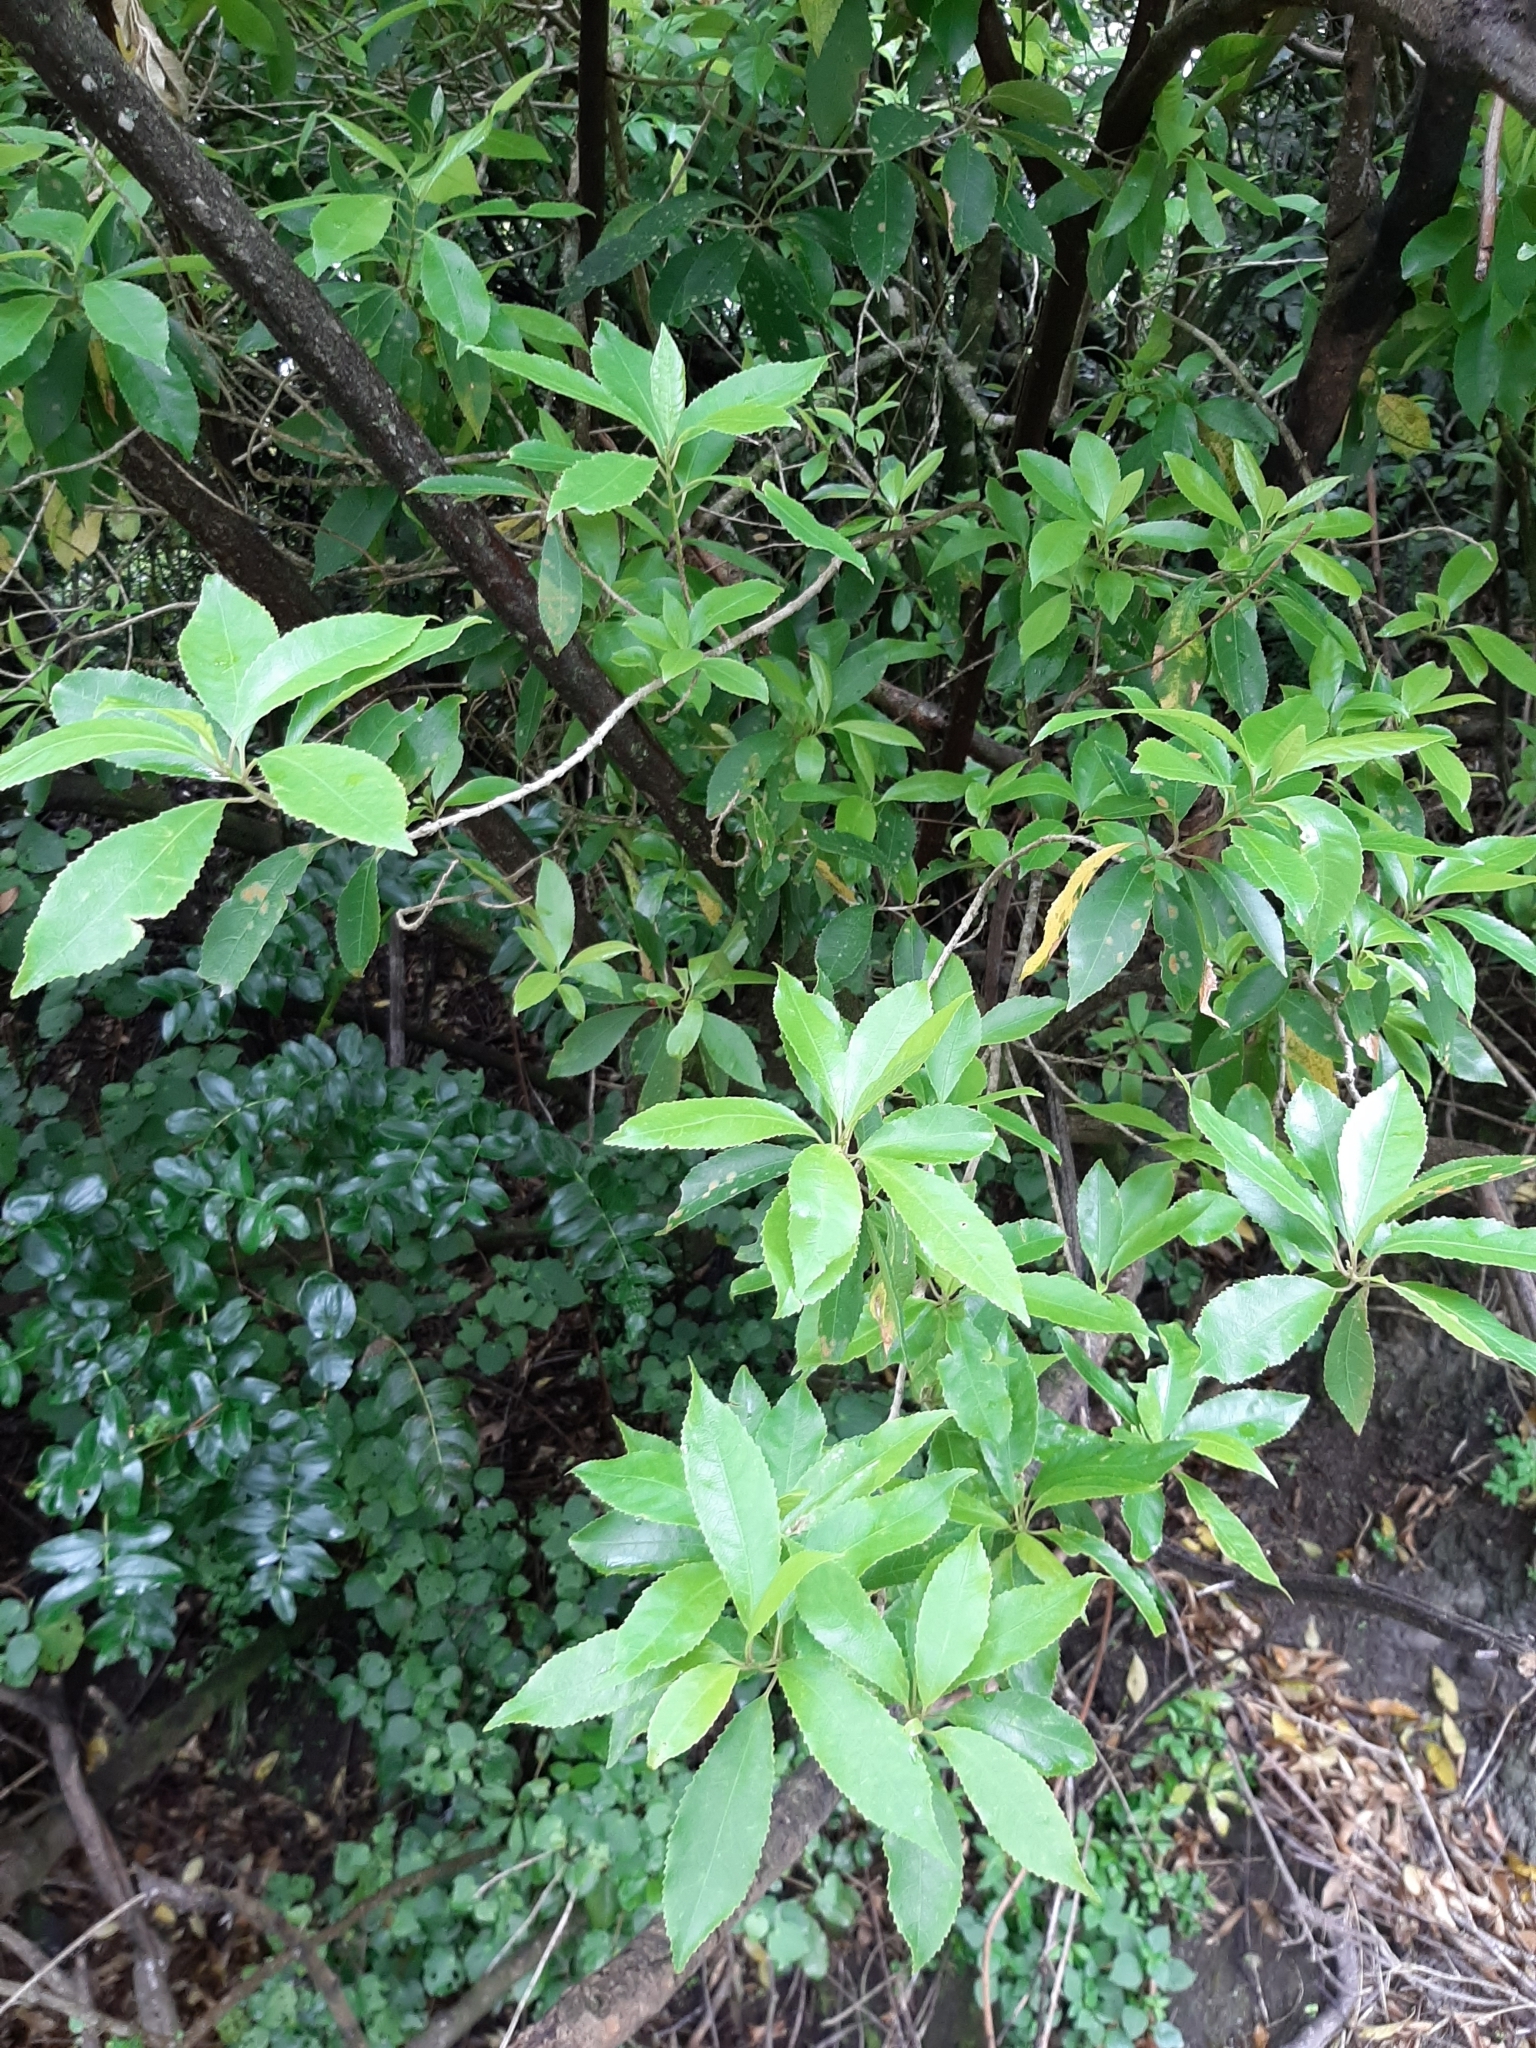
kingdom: Plantae
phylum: Tracheophyta
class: Magnoliopsida
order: Malpighiales
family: Violaceae
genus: Melicytus
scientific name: Melicytus ramiflorus
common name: Mahoe
